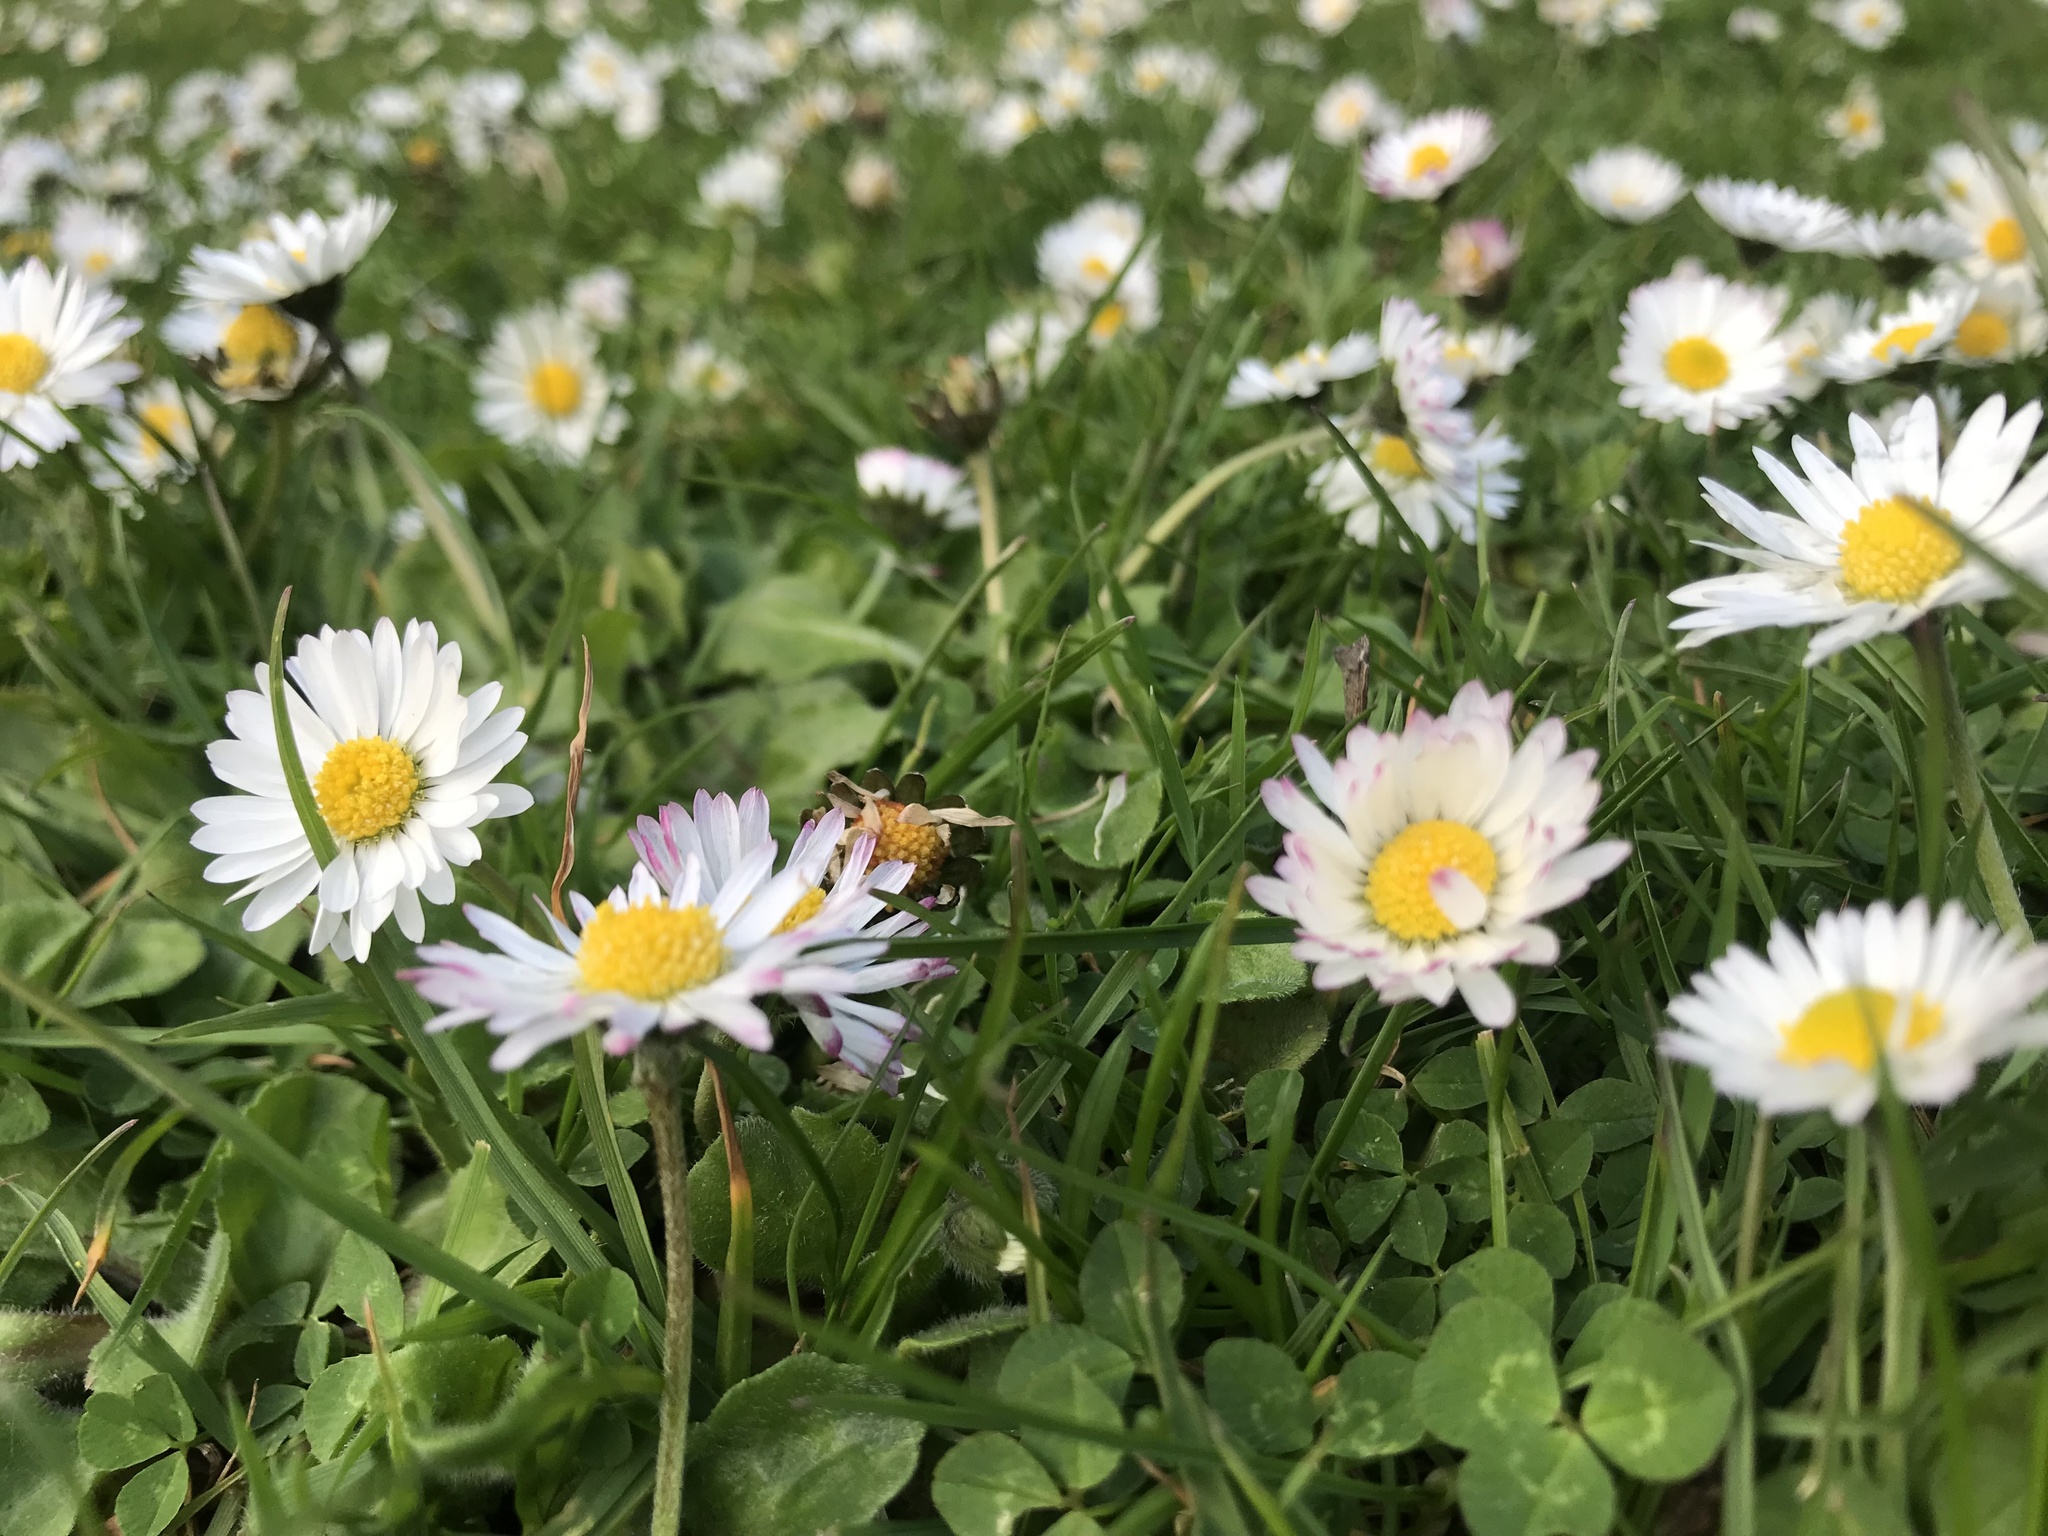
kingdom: Plantae
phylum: Tracheophyta
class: Magnoliopsida
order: Asterales
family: Asteraceae
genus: Bellis
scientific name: Bellis perennis
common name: Lawndaisy
